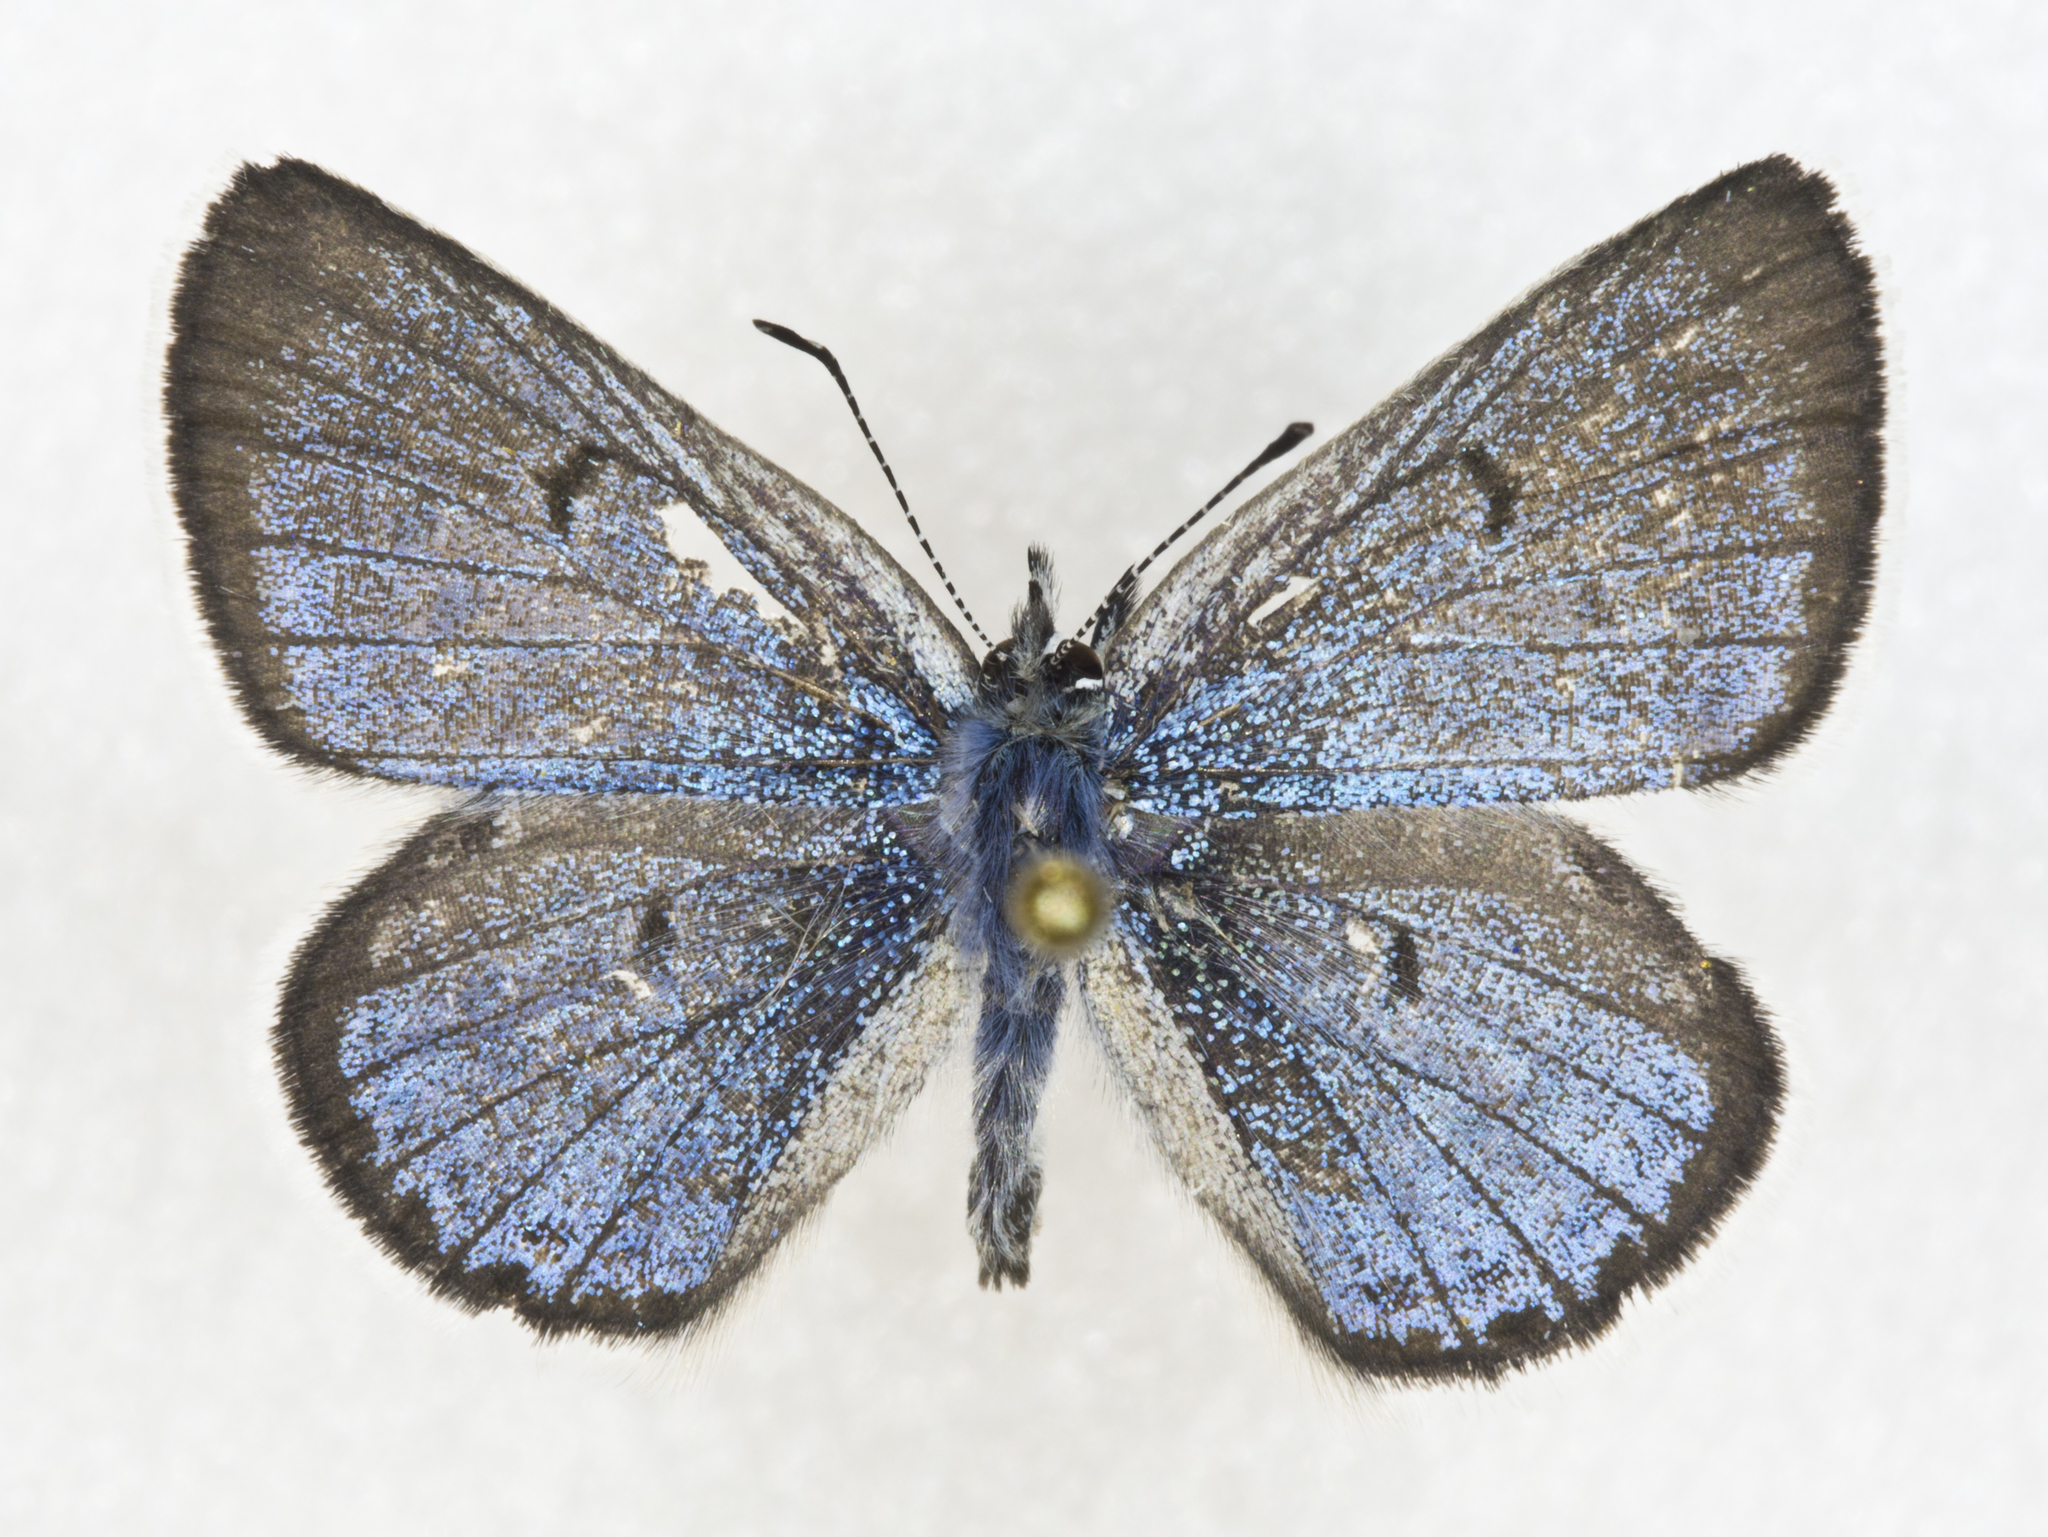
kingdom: Animalia
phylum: Arthropoda
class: Insecta
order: Lepidoptera
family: Lycaenidae
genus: Icaricia
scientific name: Icaricia saepiolus
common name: Greenish blue
